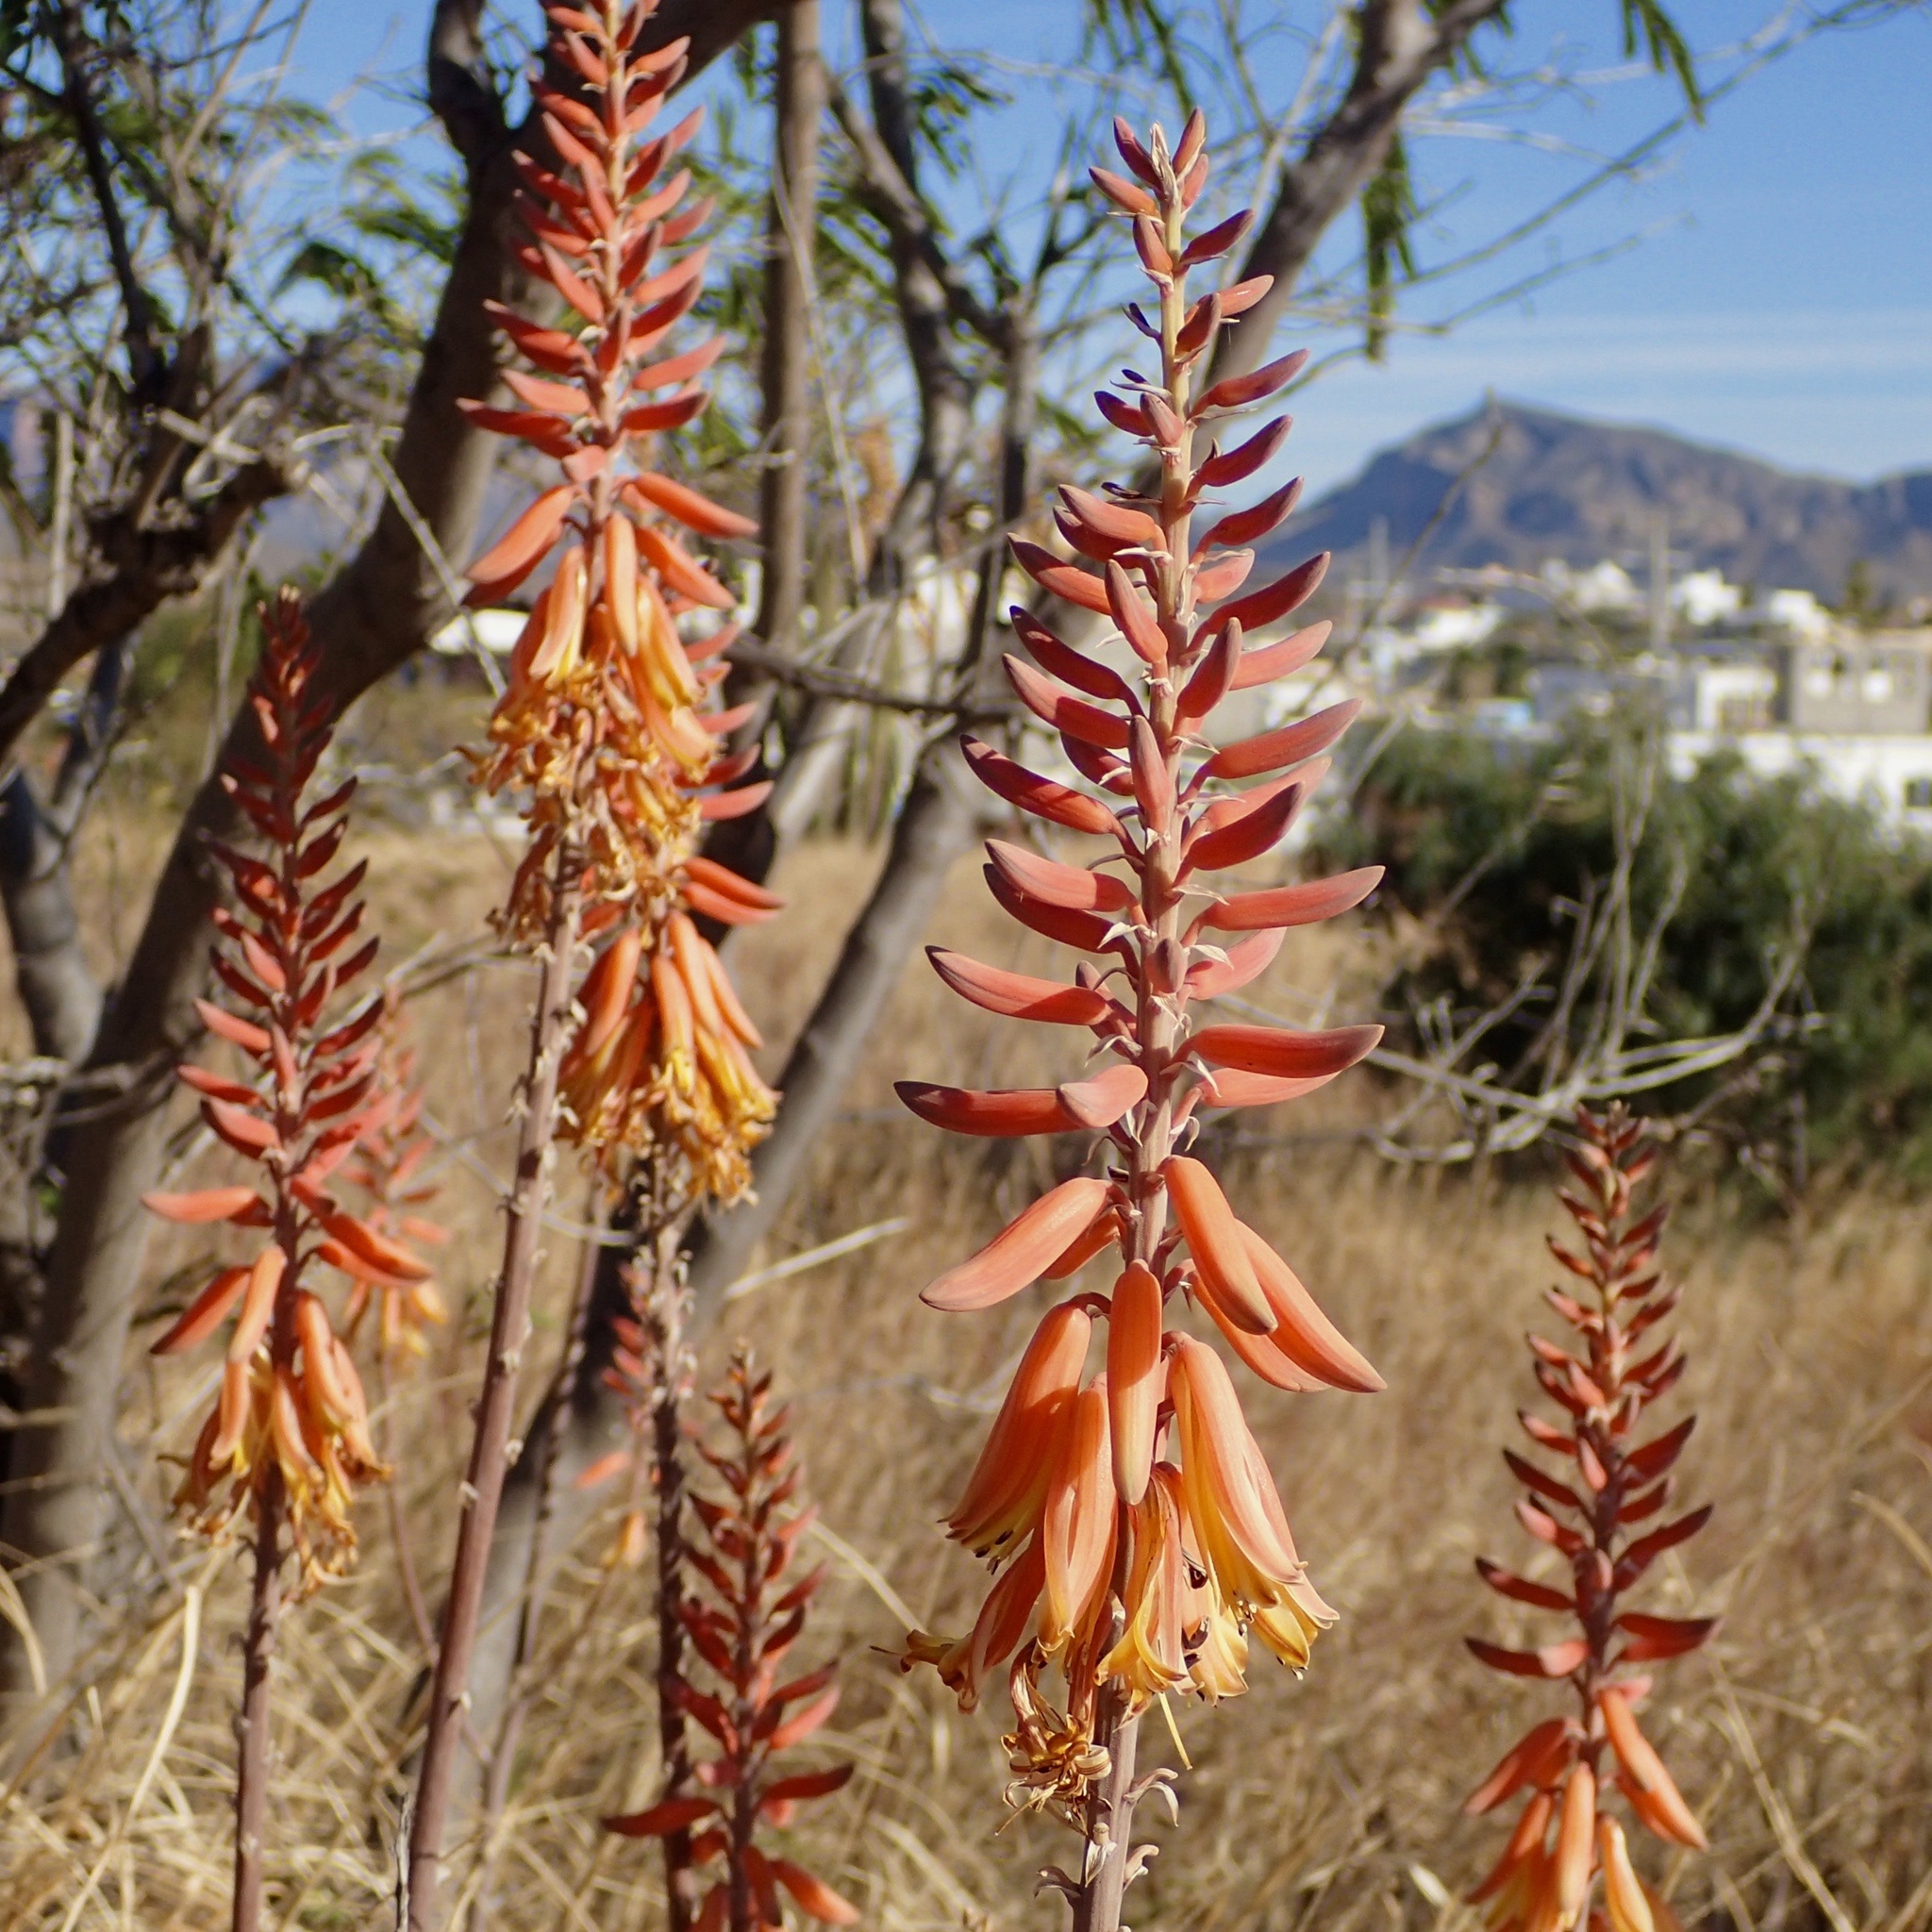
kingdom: Plantae
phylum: Tracheophyta
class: Liliopsida
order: Asparagales
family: Asphodelaceae
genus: Aloe
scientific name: Aloe vera
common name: Barbados aloe
